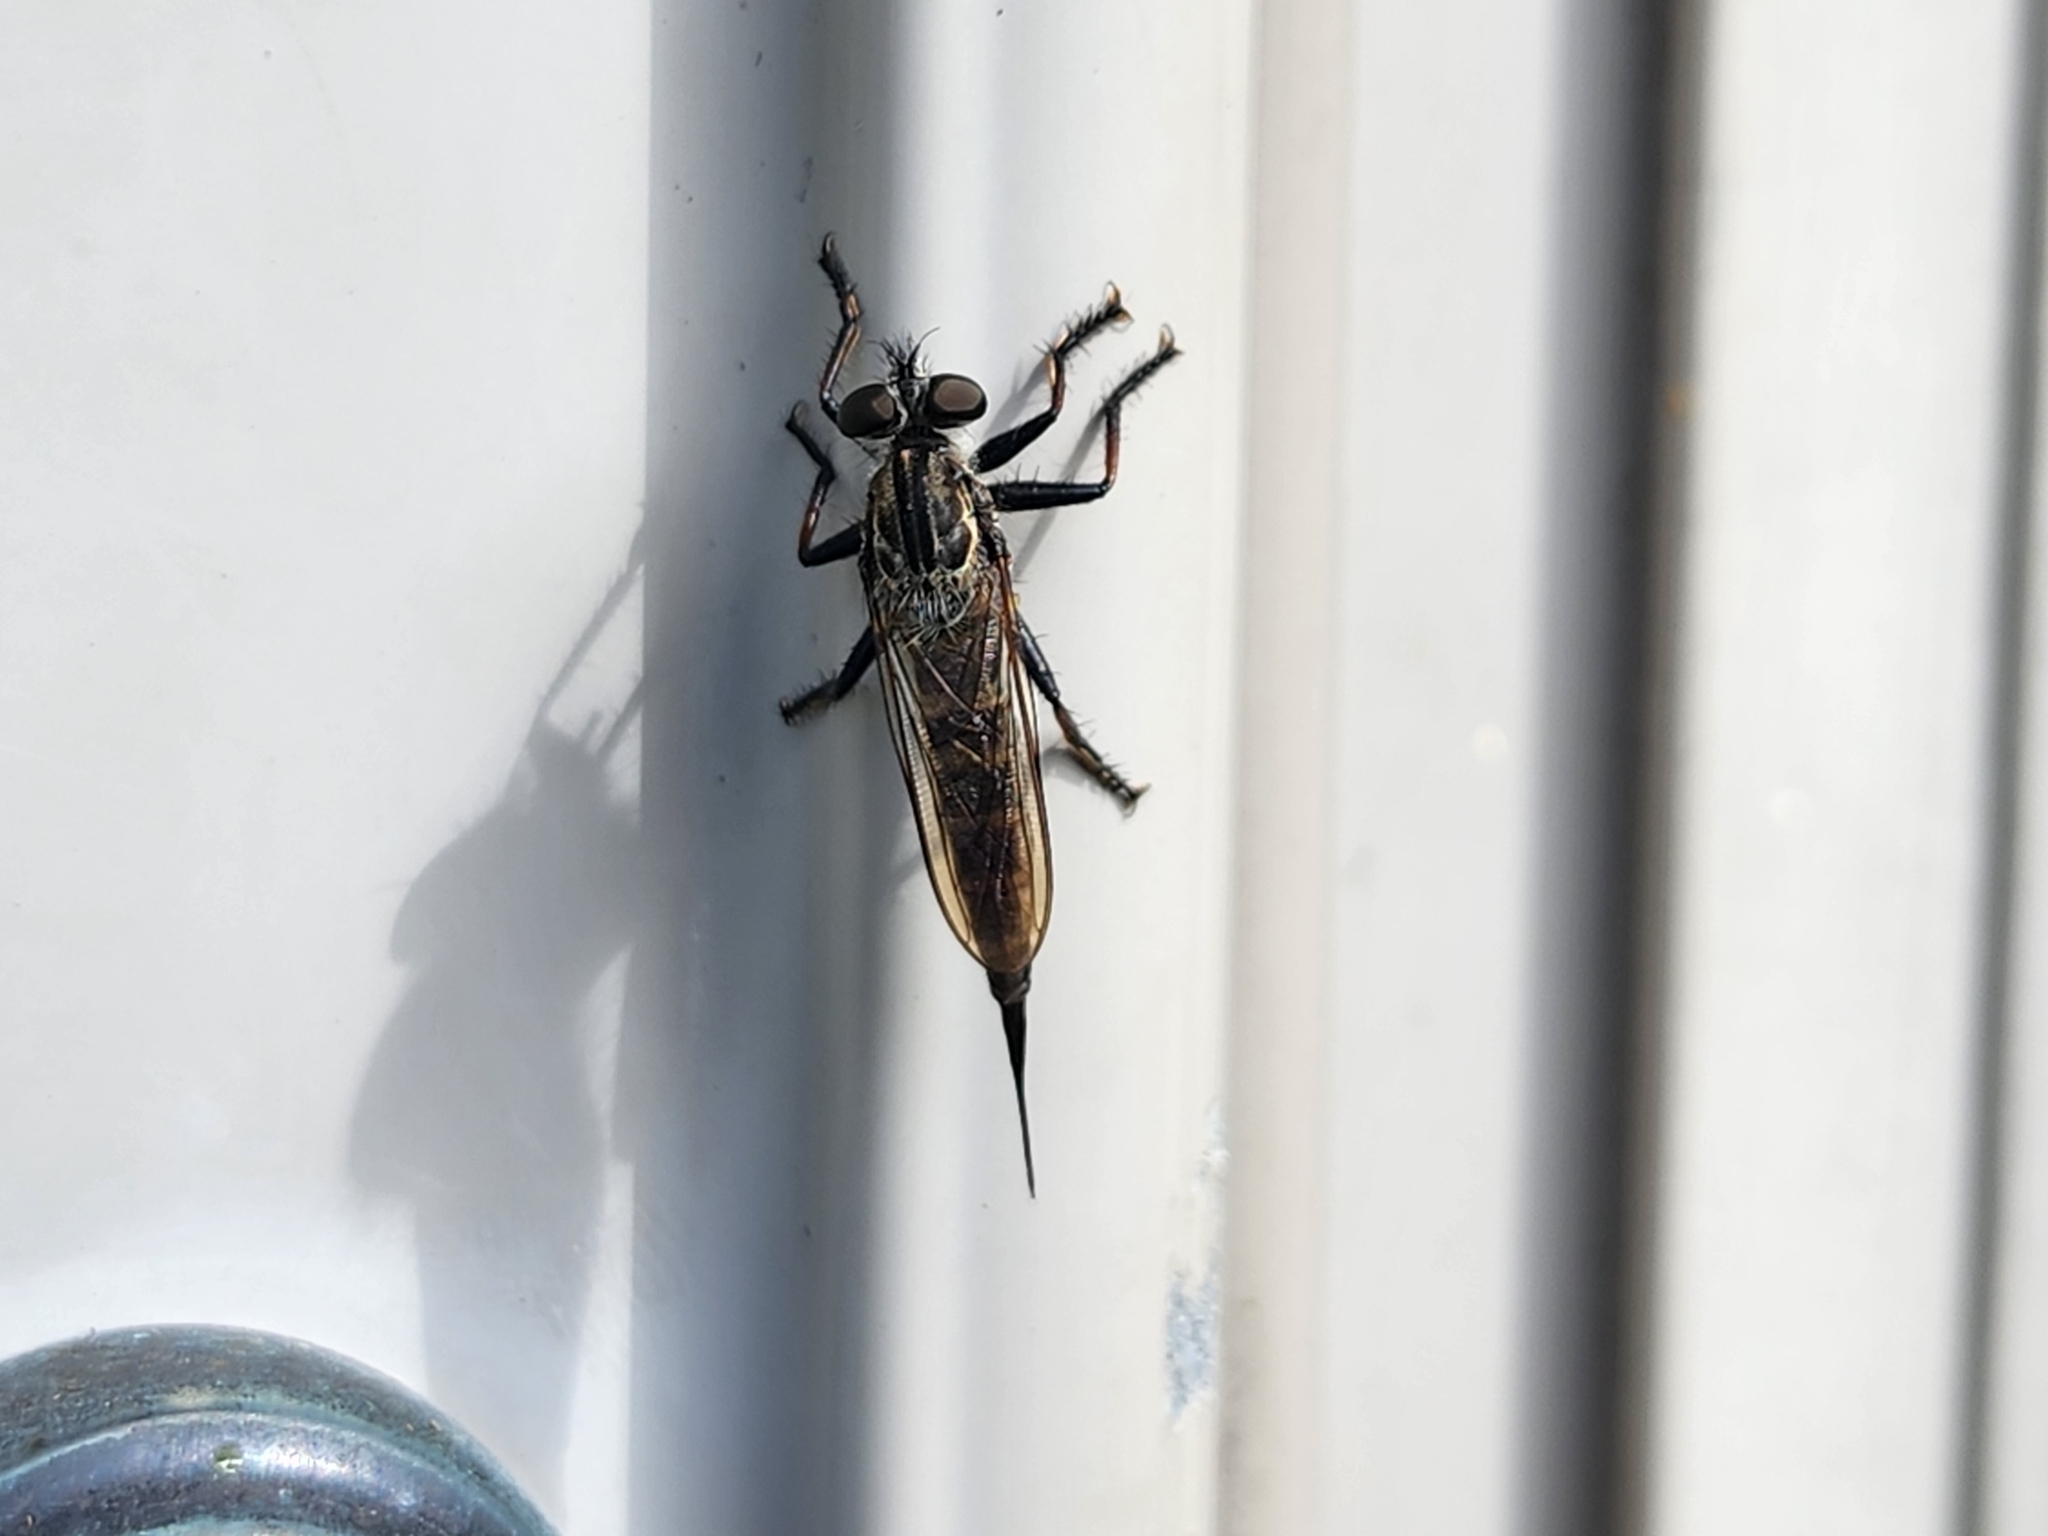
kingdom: Animalia
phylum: Arthropoda
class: Insecta
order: Diptera
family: Asilidae
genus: Efferia
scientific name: Efferia aestuans
